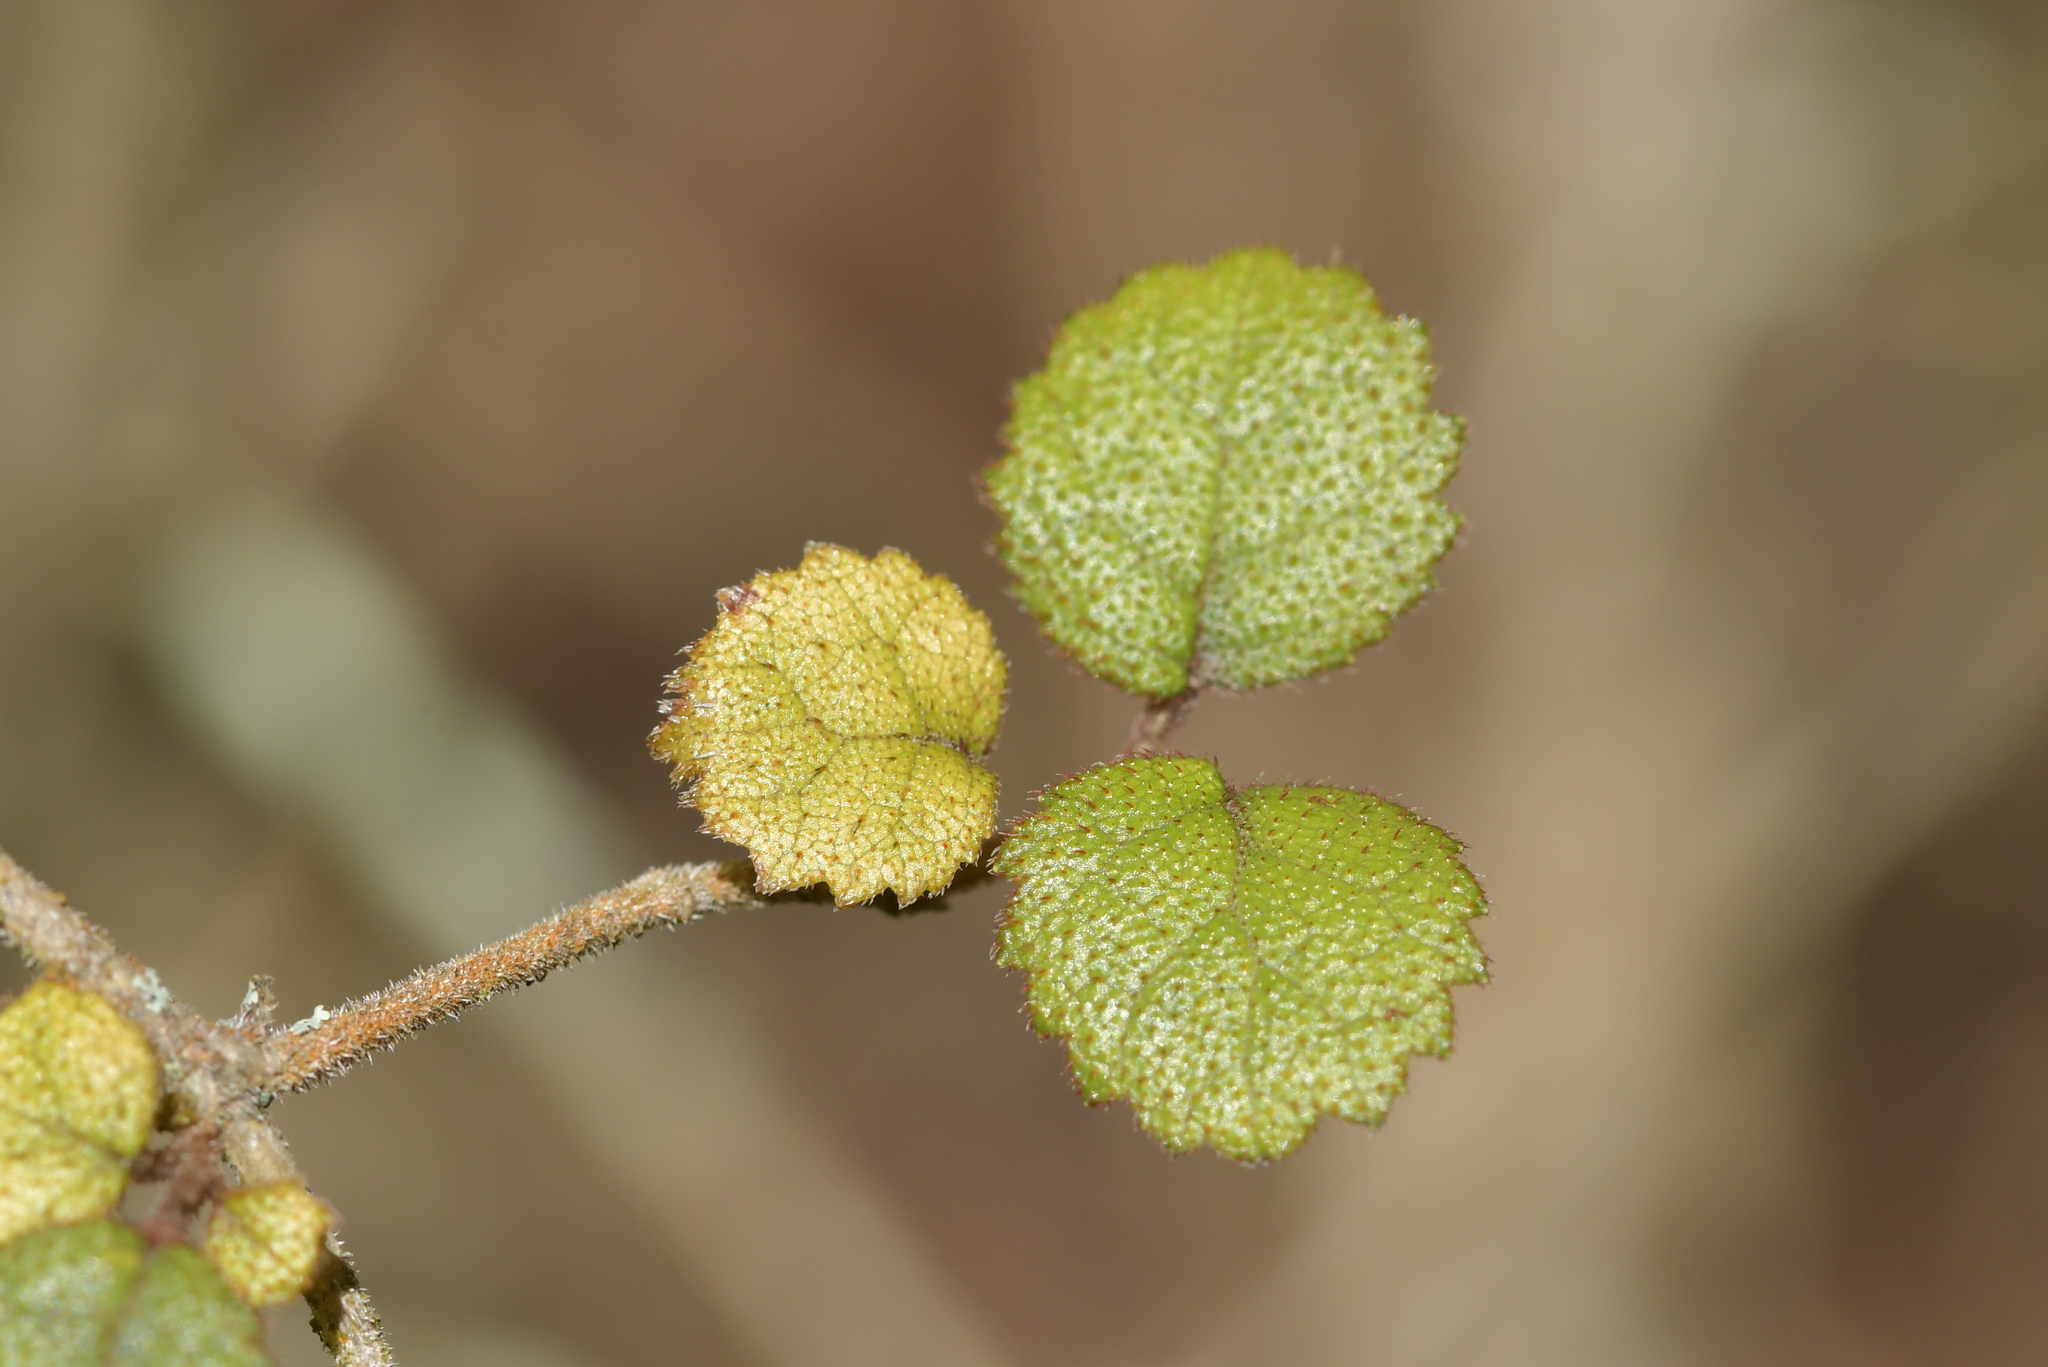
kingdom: Plantae
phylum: Tracheophyta
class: Magnoliopsida
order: Lamiales
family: Gesneriaceae
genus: Rhabdothamnus
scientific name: Rhabdothamnus solandri
